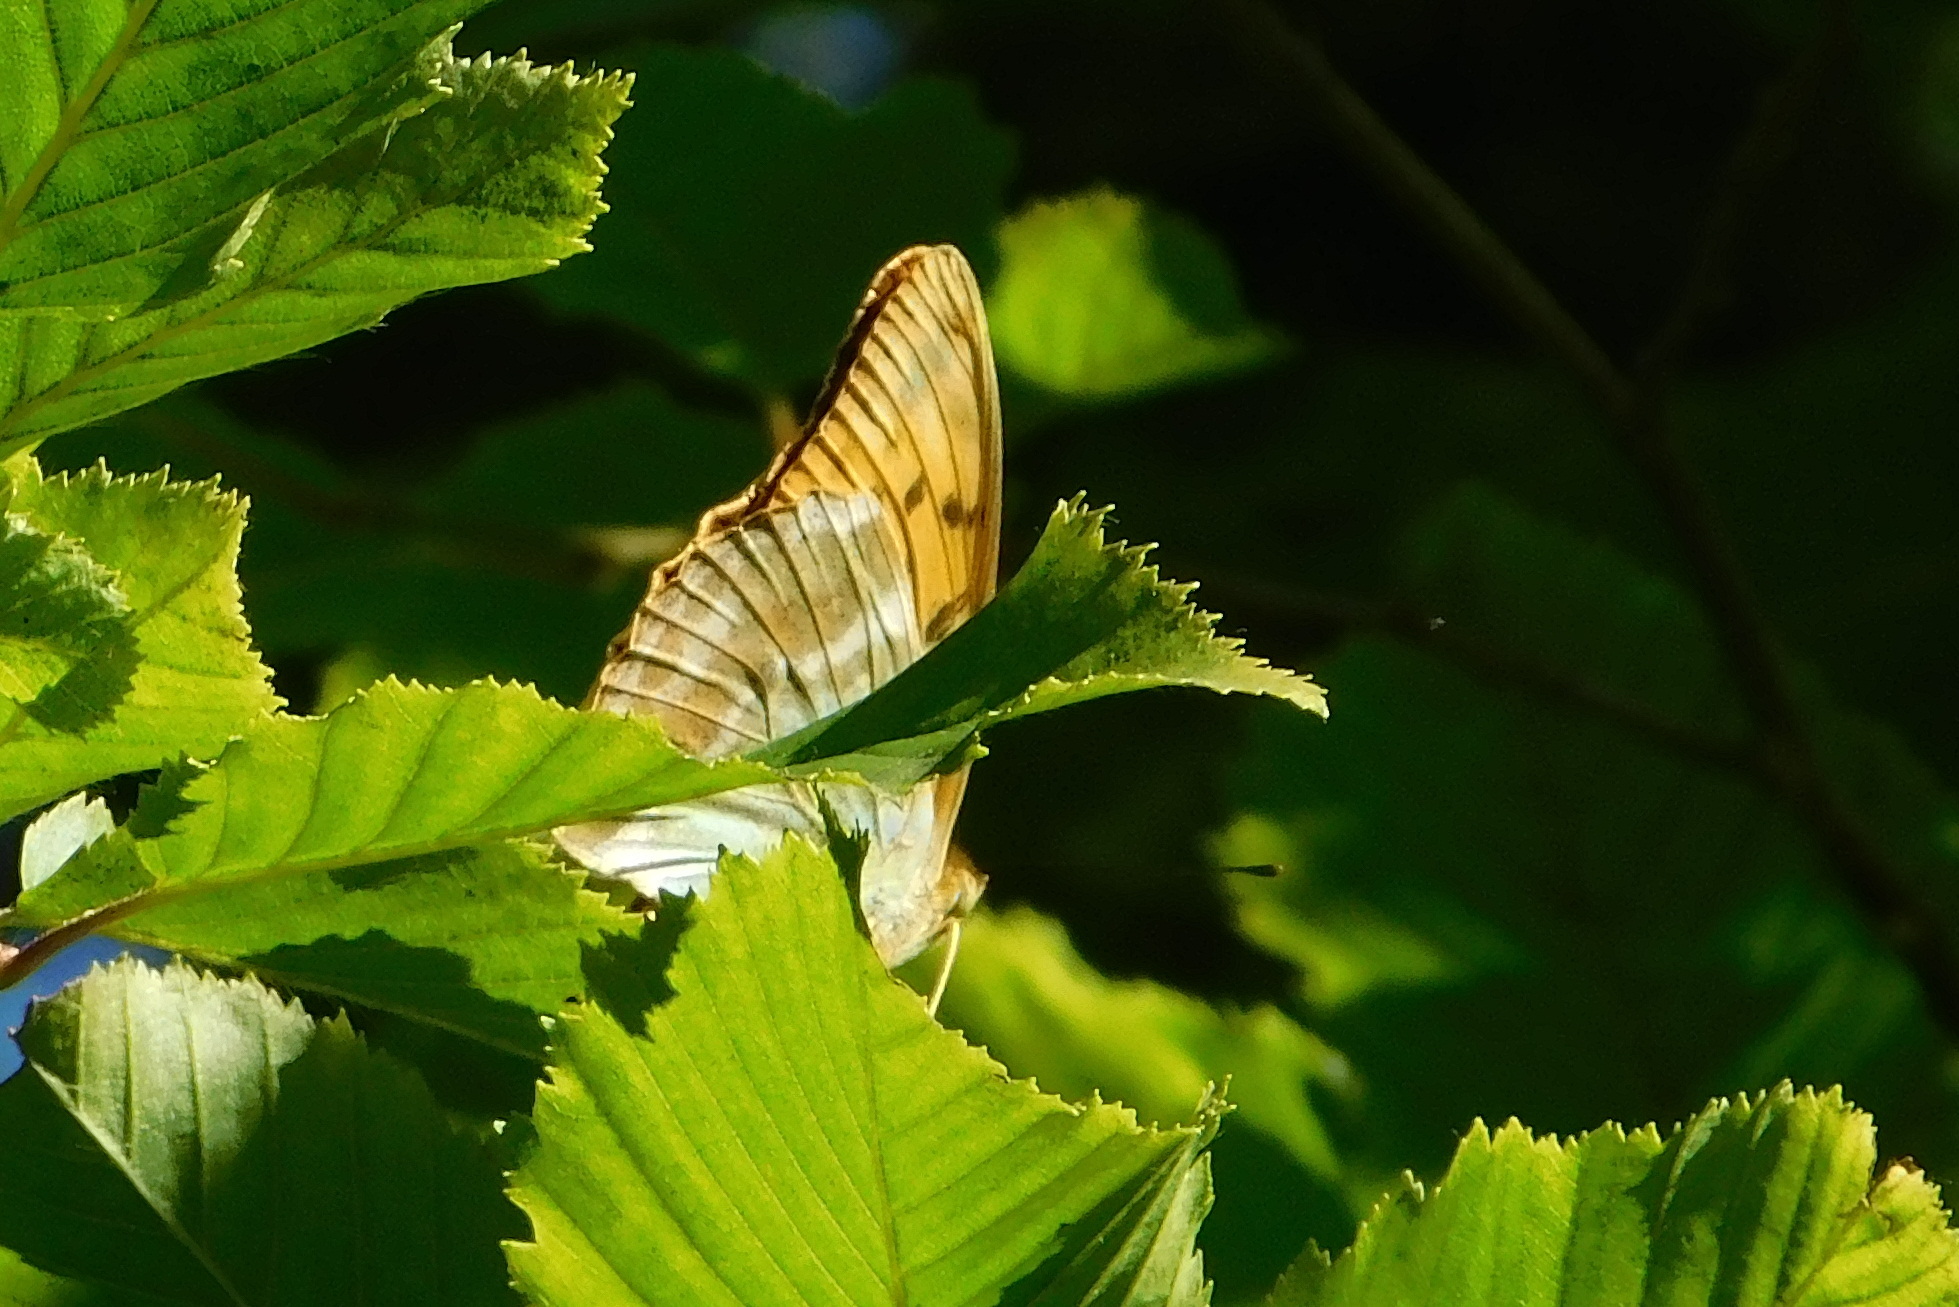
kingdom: Animalia
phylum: Arthropoda
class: Insecta
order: Lepidoptera
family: Nymphalidae
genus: Argynnis
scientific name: Argynnis paphia
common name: Silver-washed fritillary
